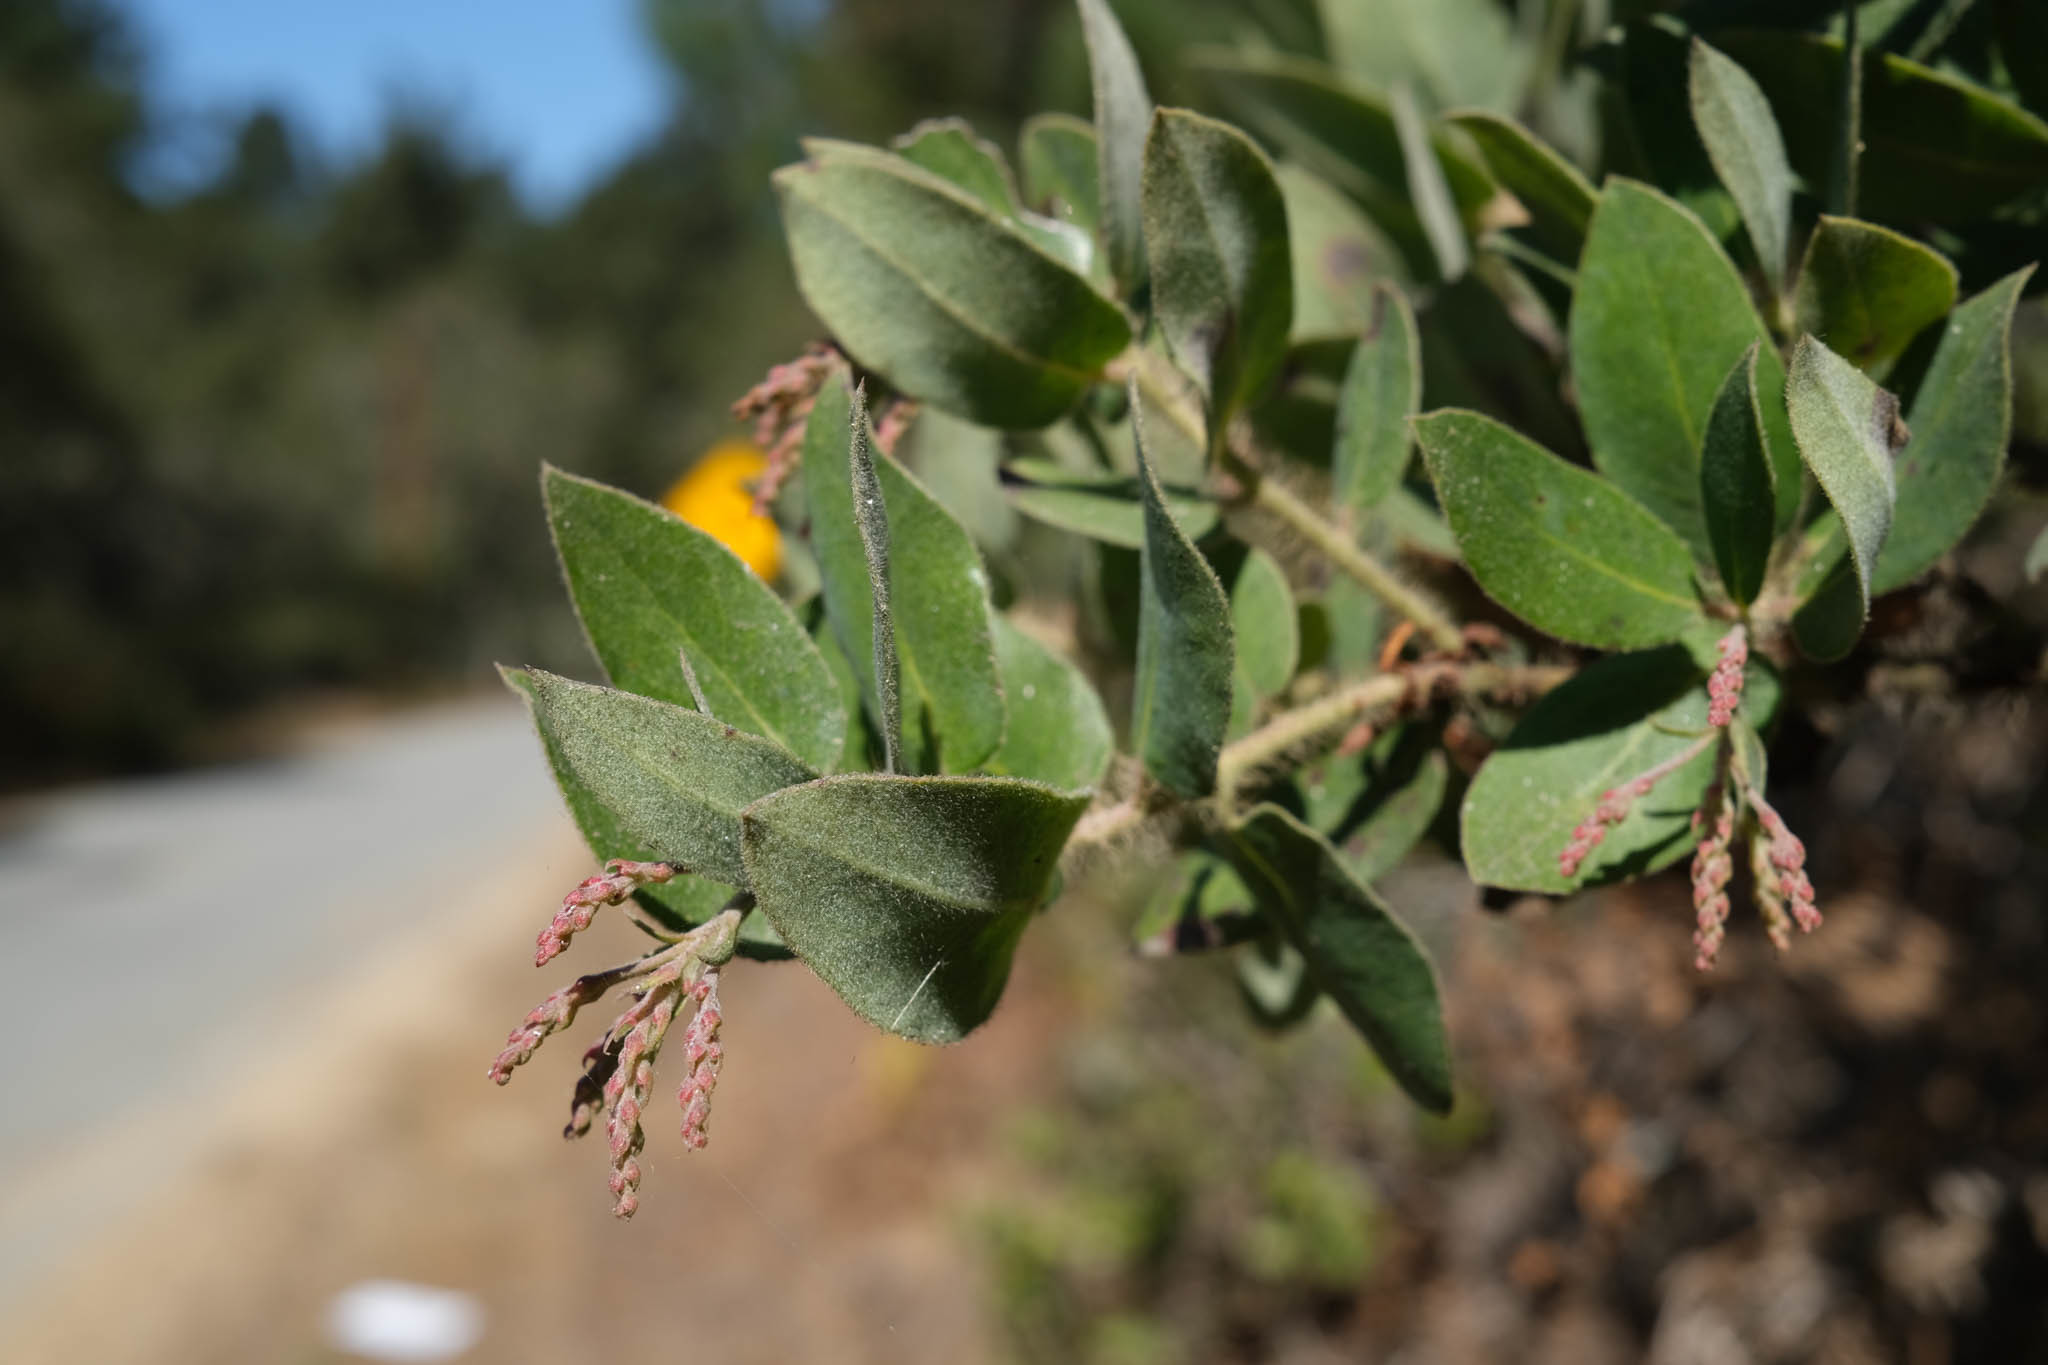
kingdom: Plantae
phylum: Tracheophyta
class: Magnoliopsida
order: Ericales
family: Ericaceae
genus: Arctostaphylos
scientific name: Arctostaphylos crustacea
